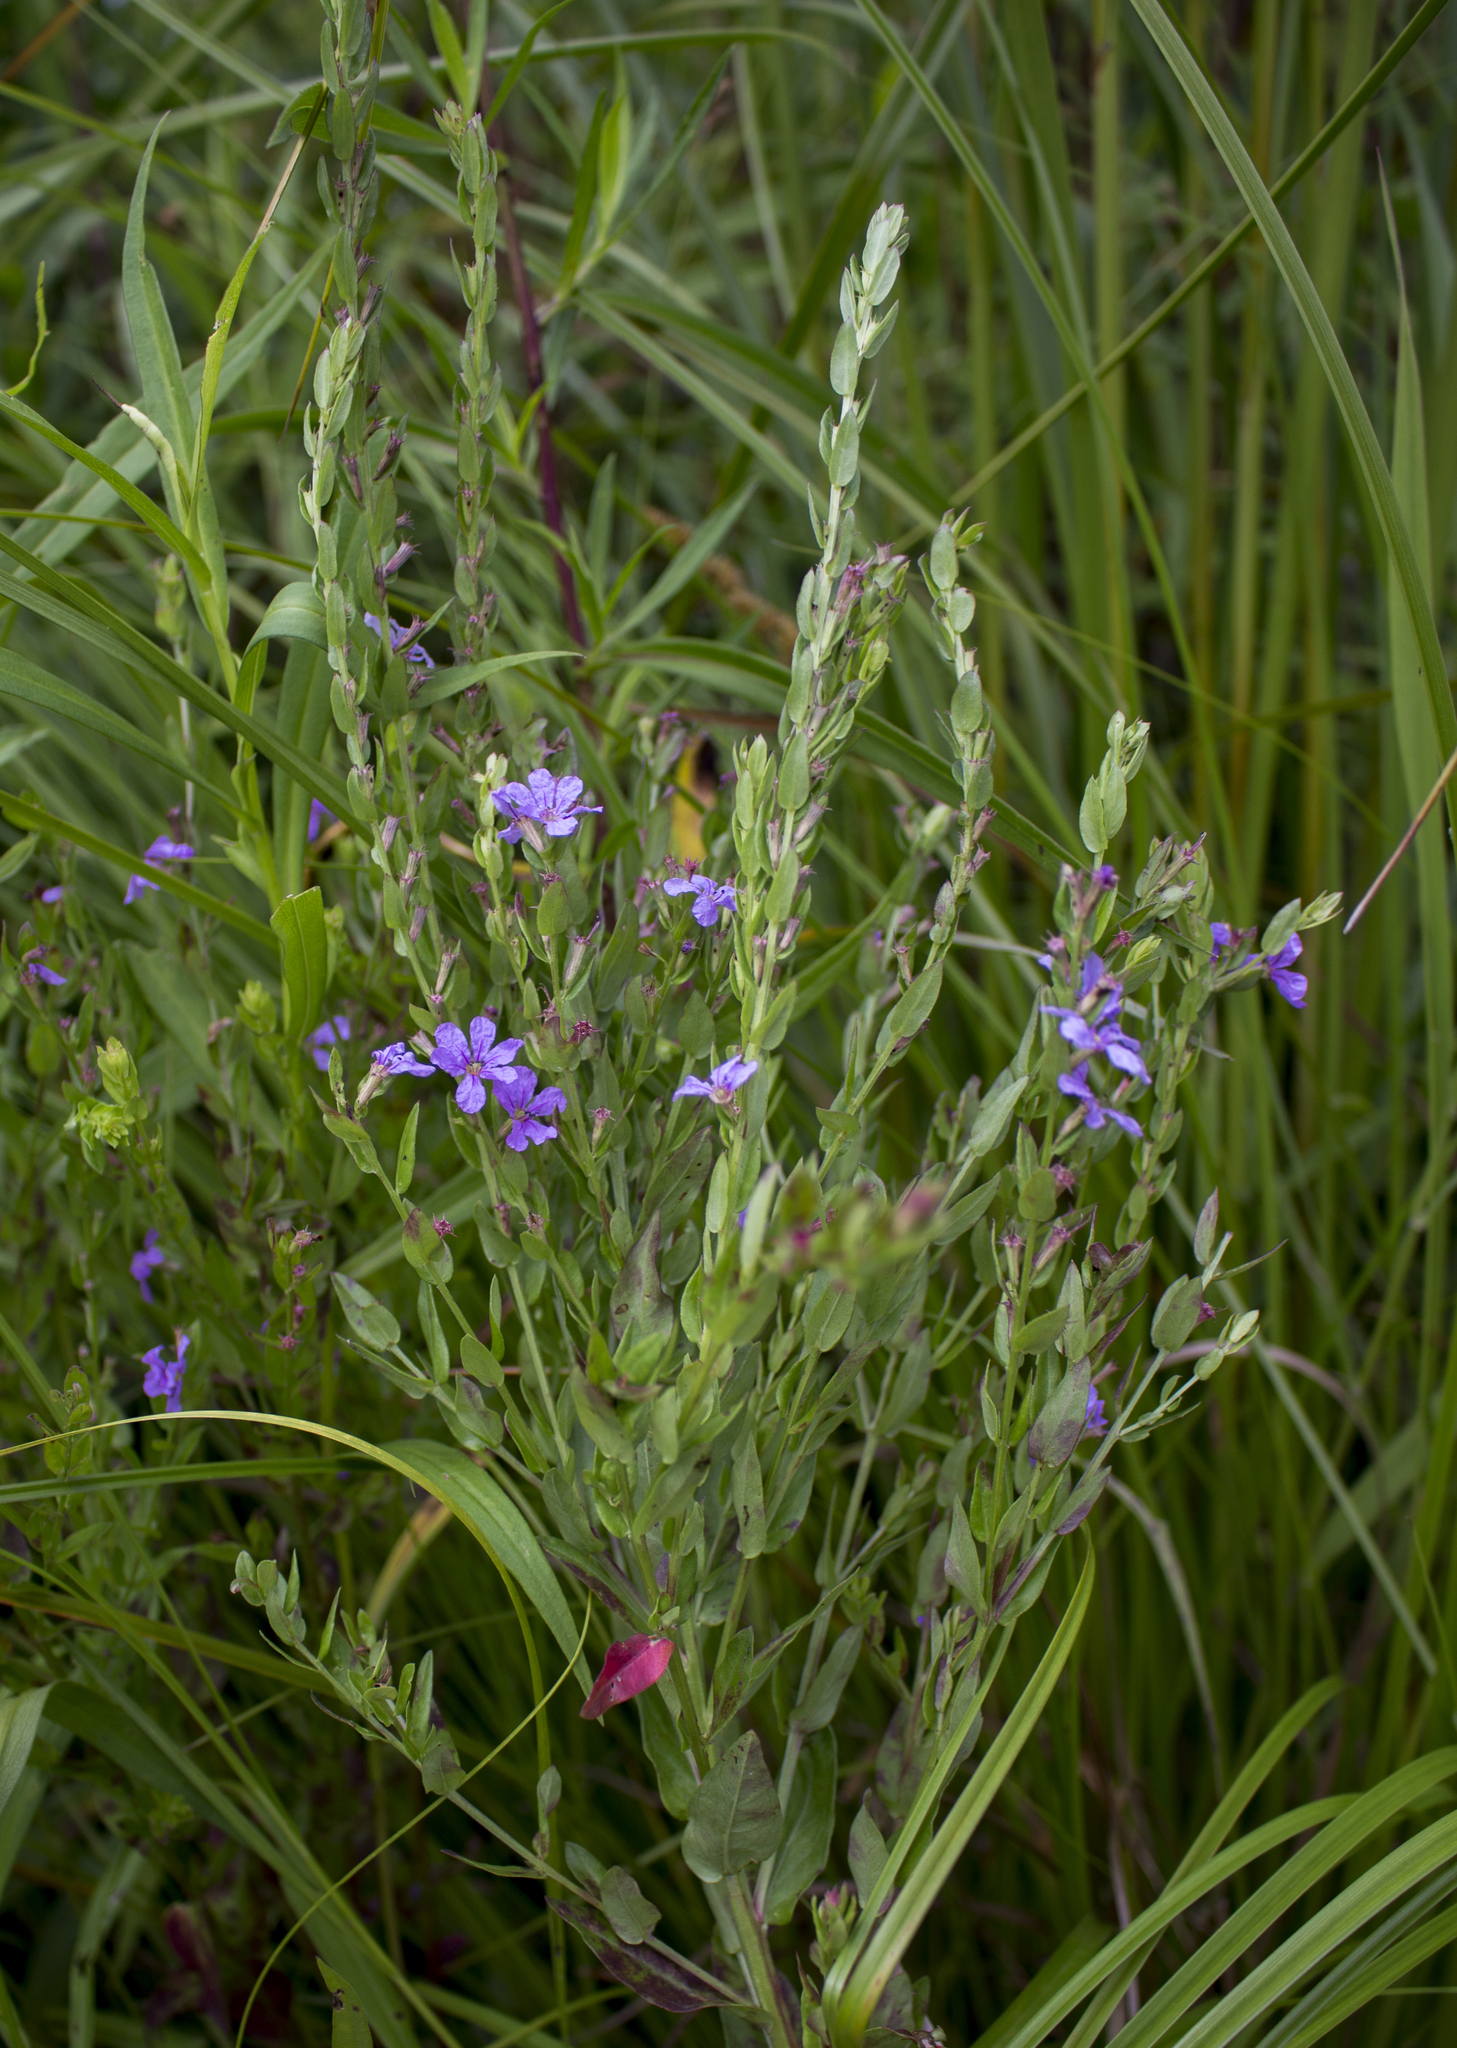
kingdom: Plantae
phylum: Tracheophyta
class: Magnoliopsida
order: Myrtales
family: Lythraceae
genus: Lythrum
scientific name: Lythrum alatum
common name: Winged loosestrife
